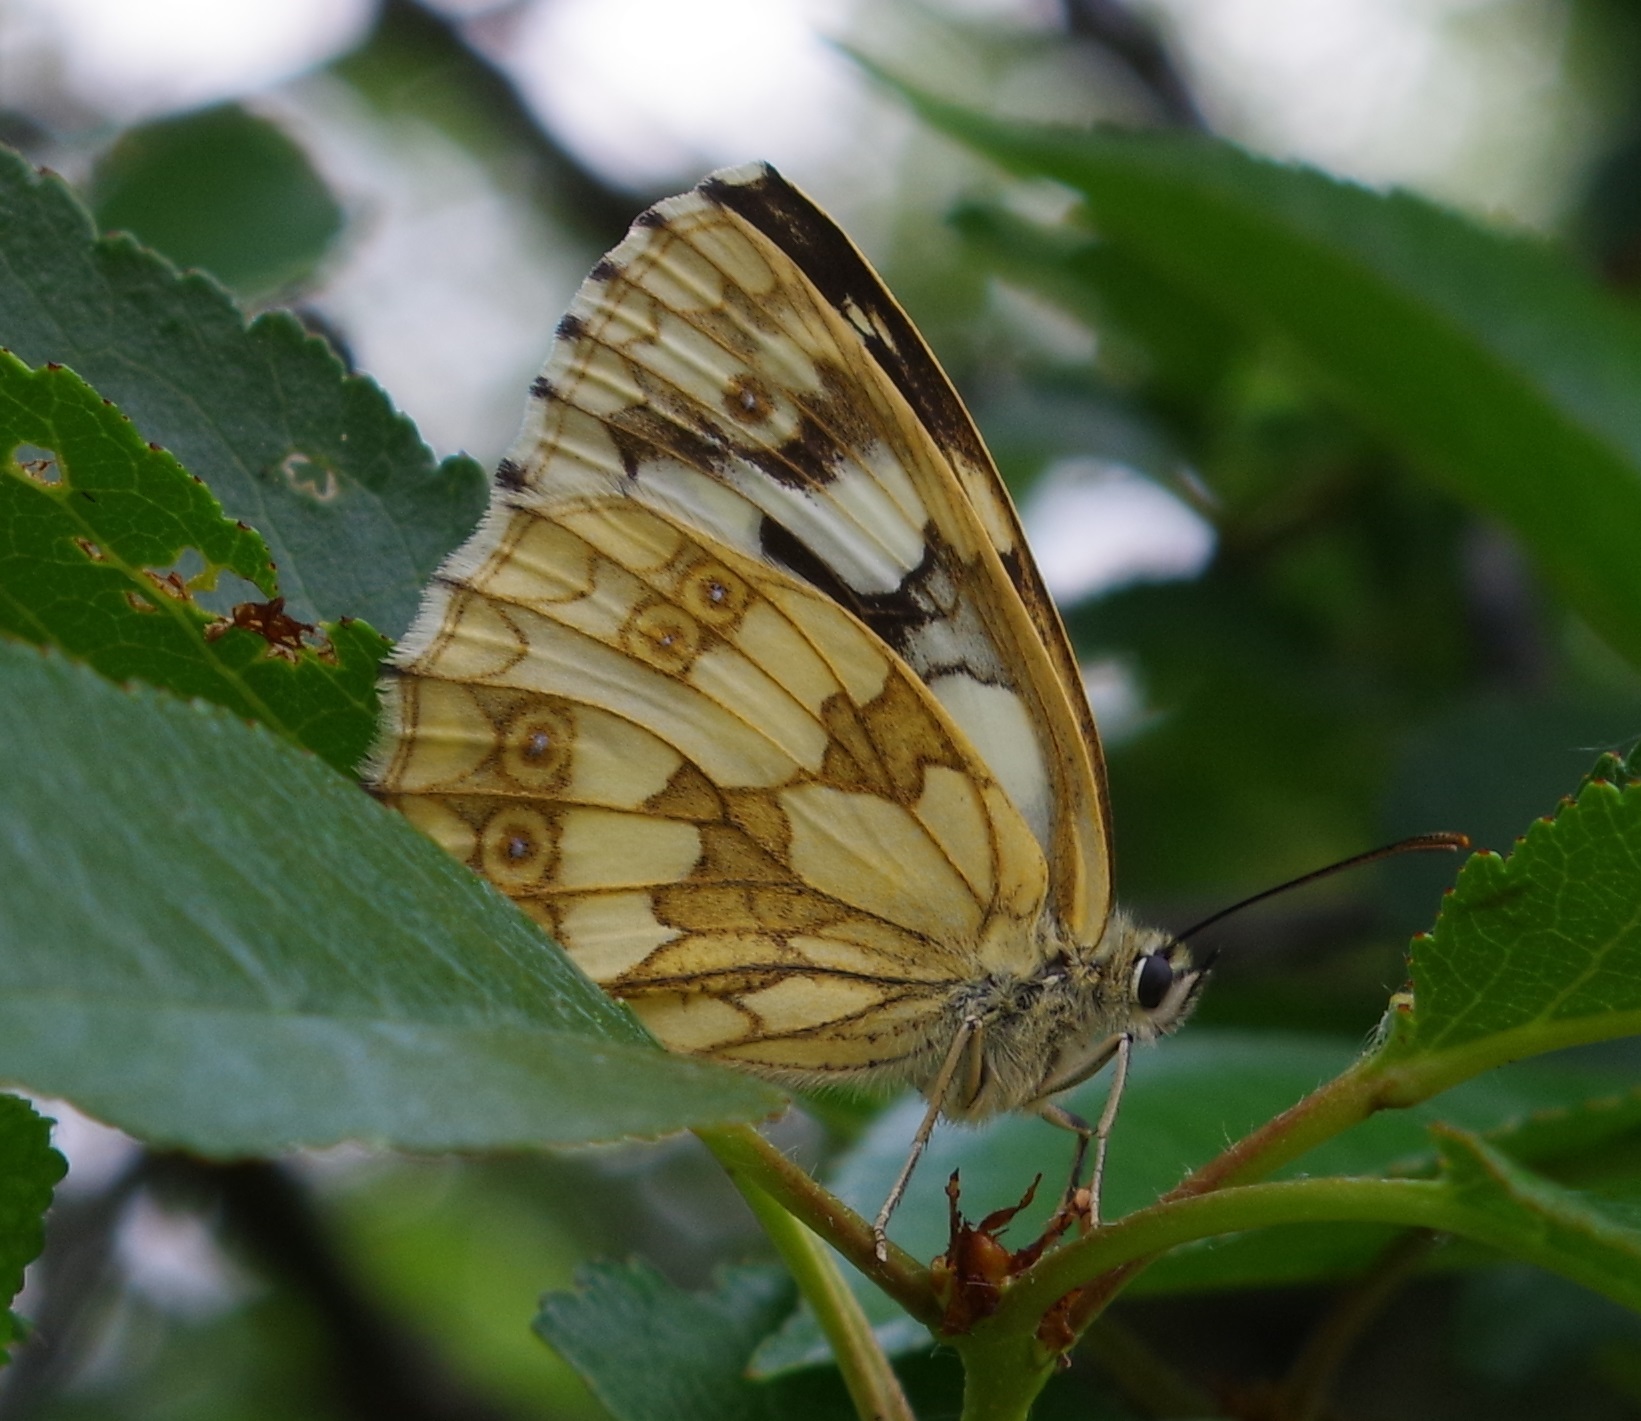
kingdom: Animalia
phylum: Arthropoda
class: Insecta
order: Lepidoptera
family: Nymphalidae
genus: Melanargia
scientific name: Melanargia galathea
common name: Marbled white
